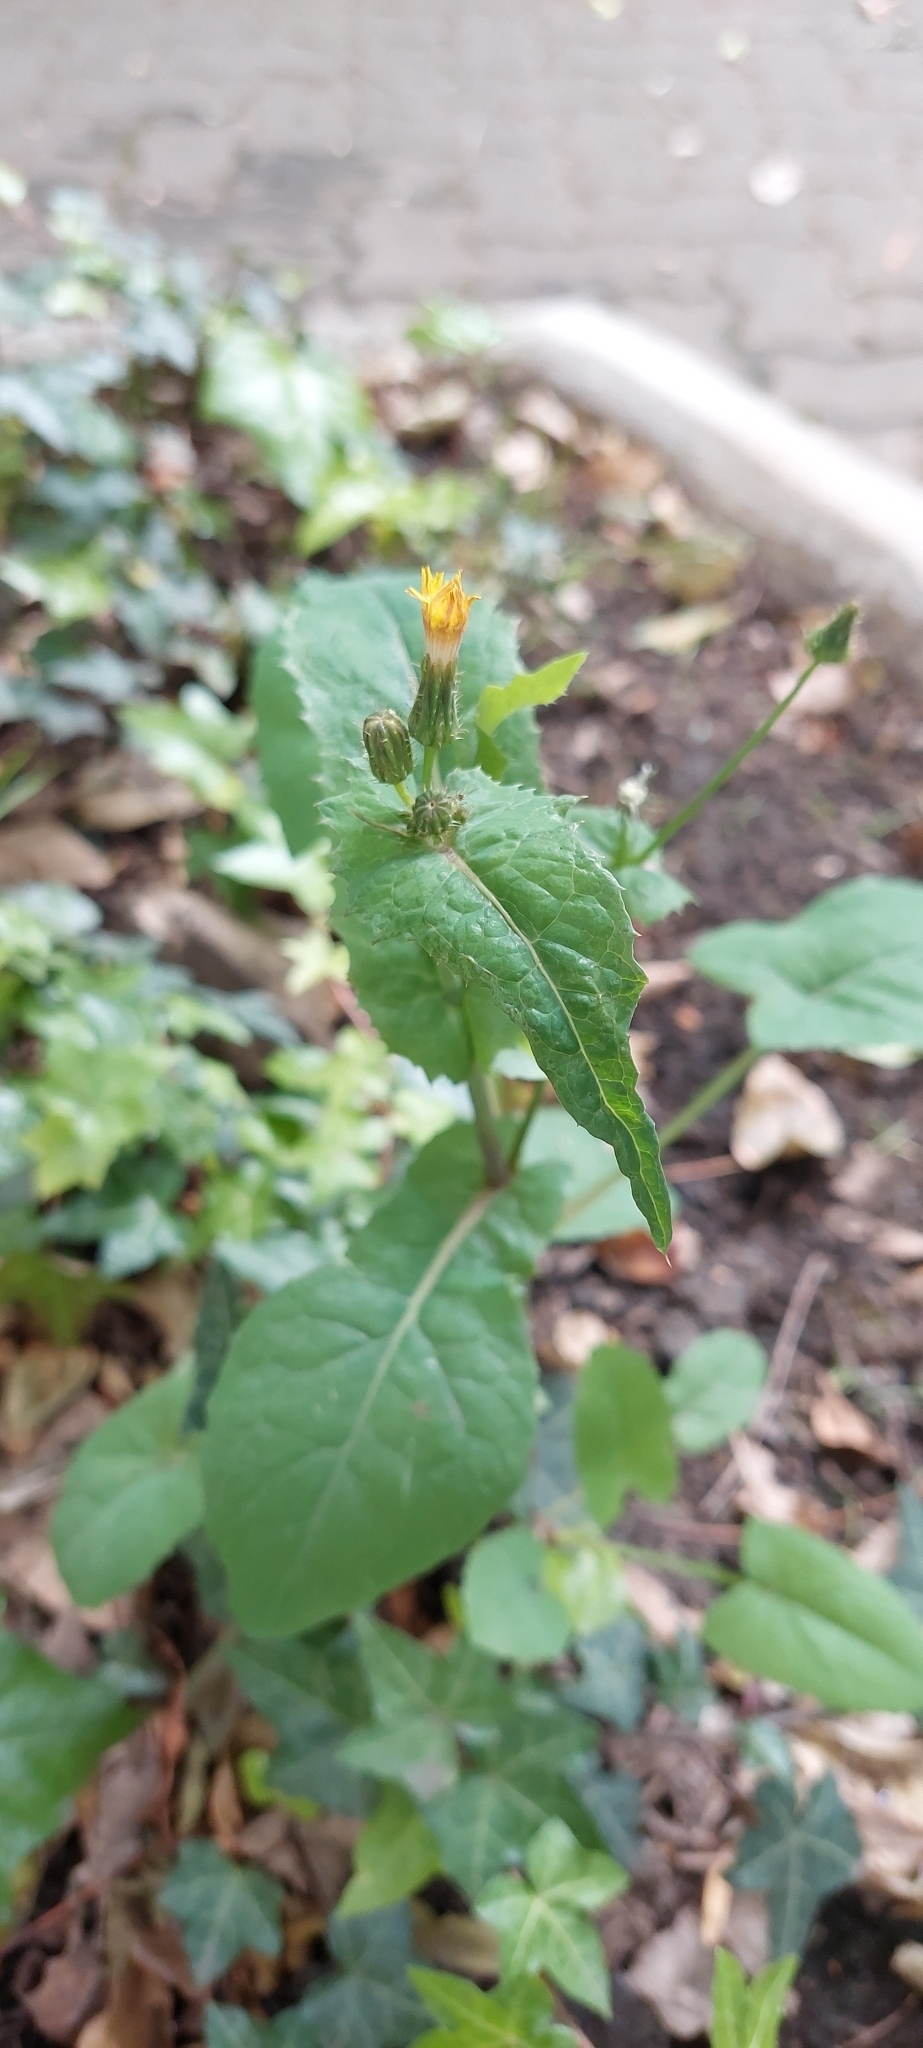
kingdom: Plantae
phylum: Tracheophyta
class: Magnoliopsida
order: Asterales
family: Asteraceae
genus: Sonchus
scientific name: Sonchus oleraceus
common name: Common sowthistle
